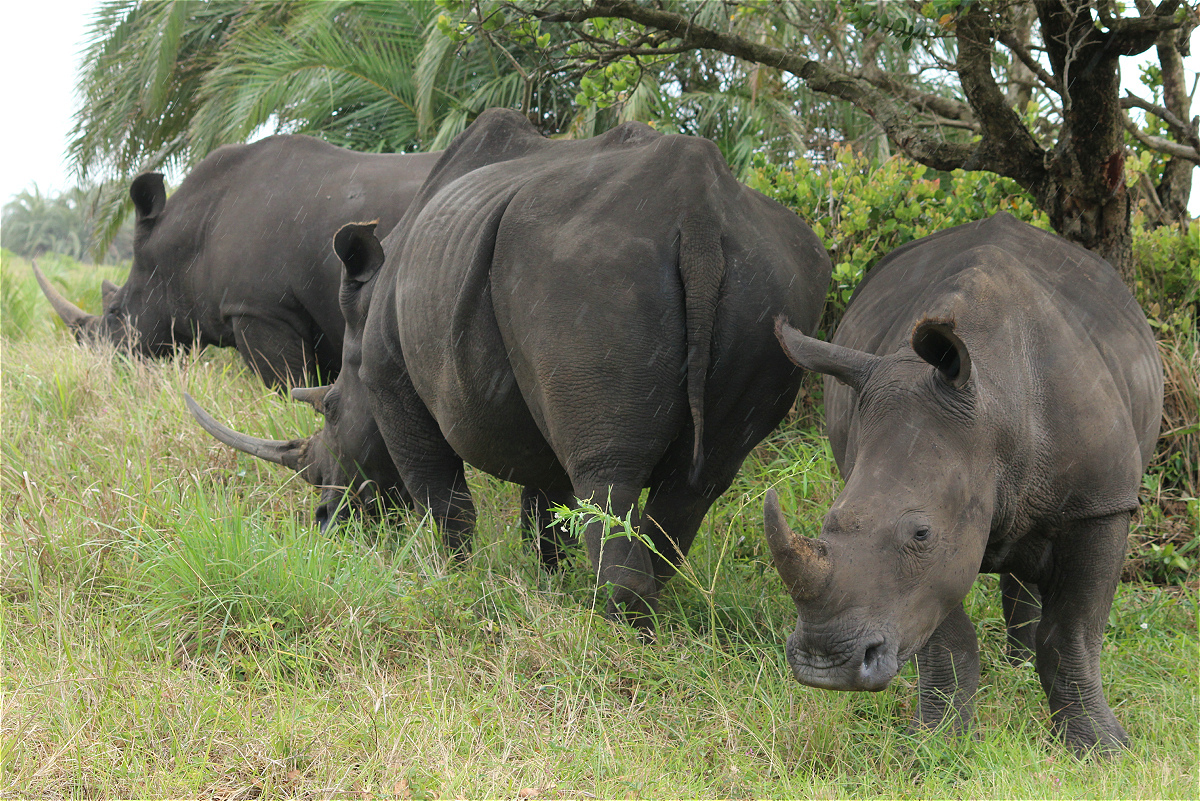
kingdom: Animalia
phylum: Chordata
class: Mammalia
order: Perissodactyla
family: Rhinocerotidae
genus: Ceratotherium
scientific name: Ceratotherium simum
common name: White rhinoceros
